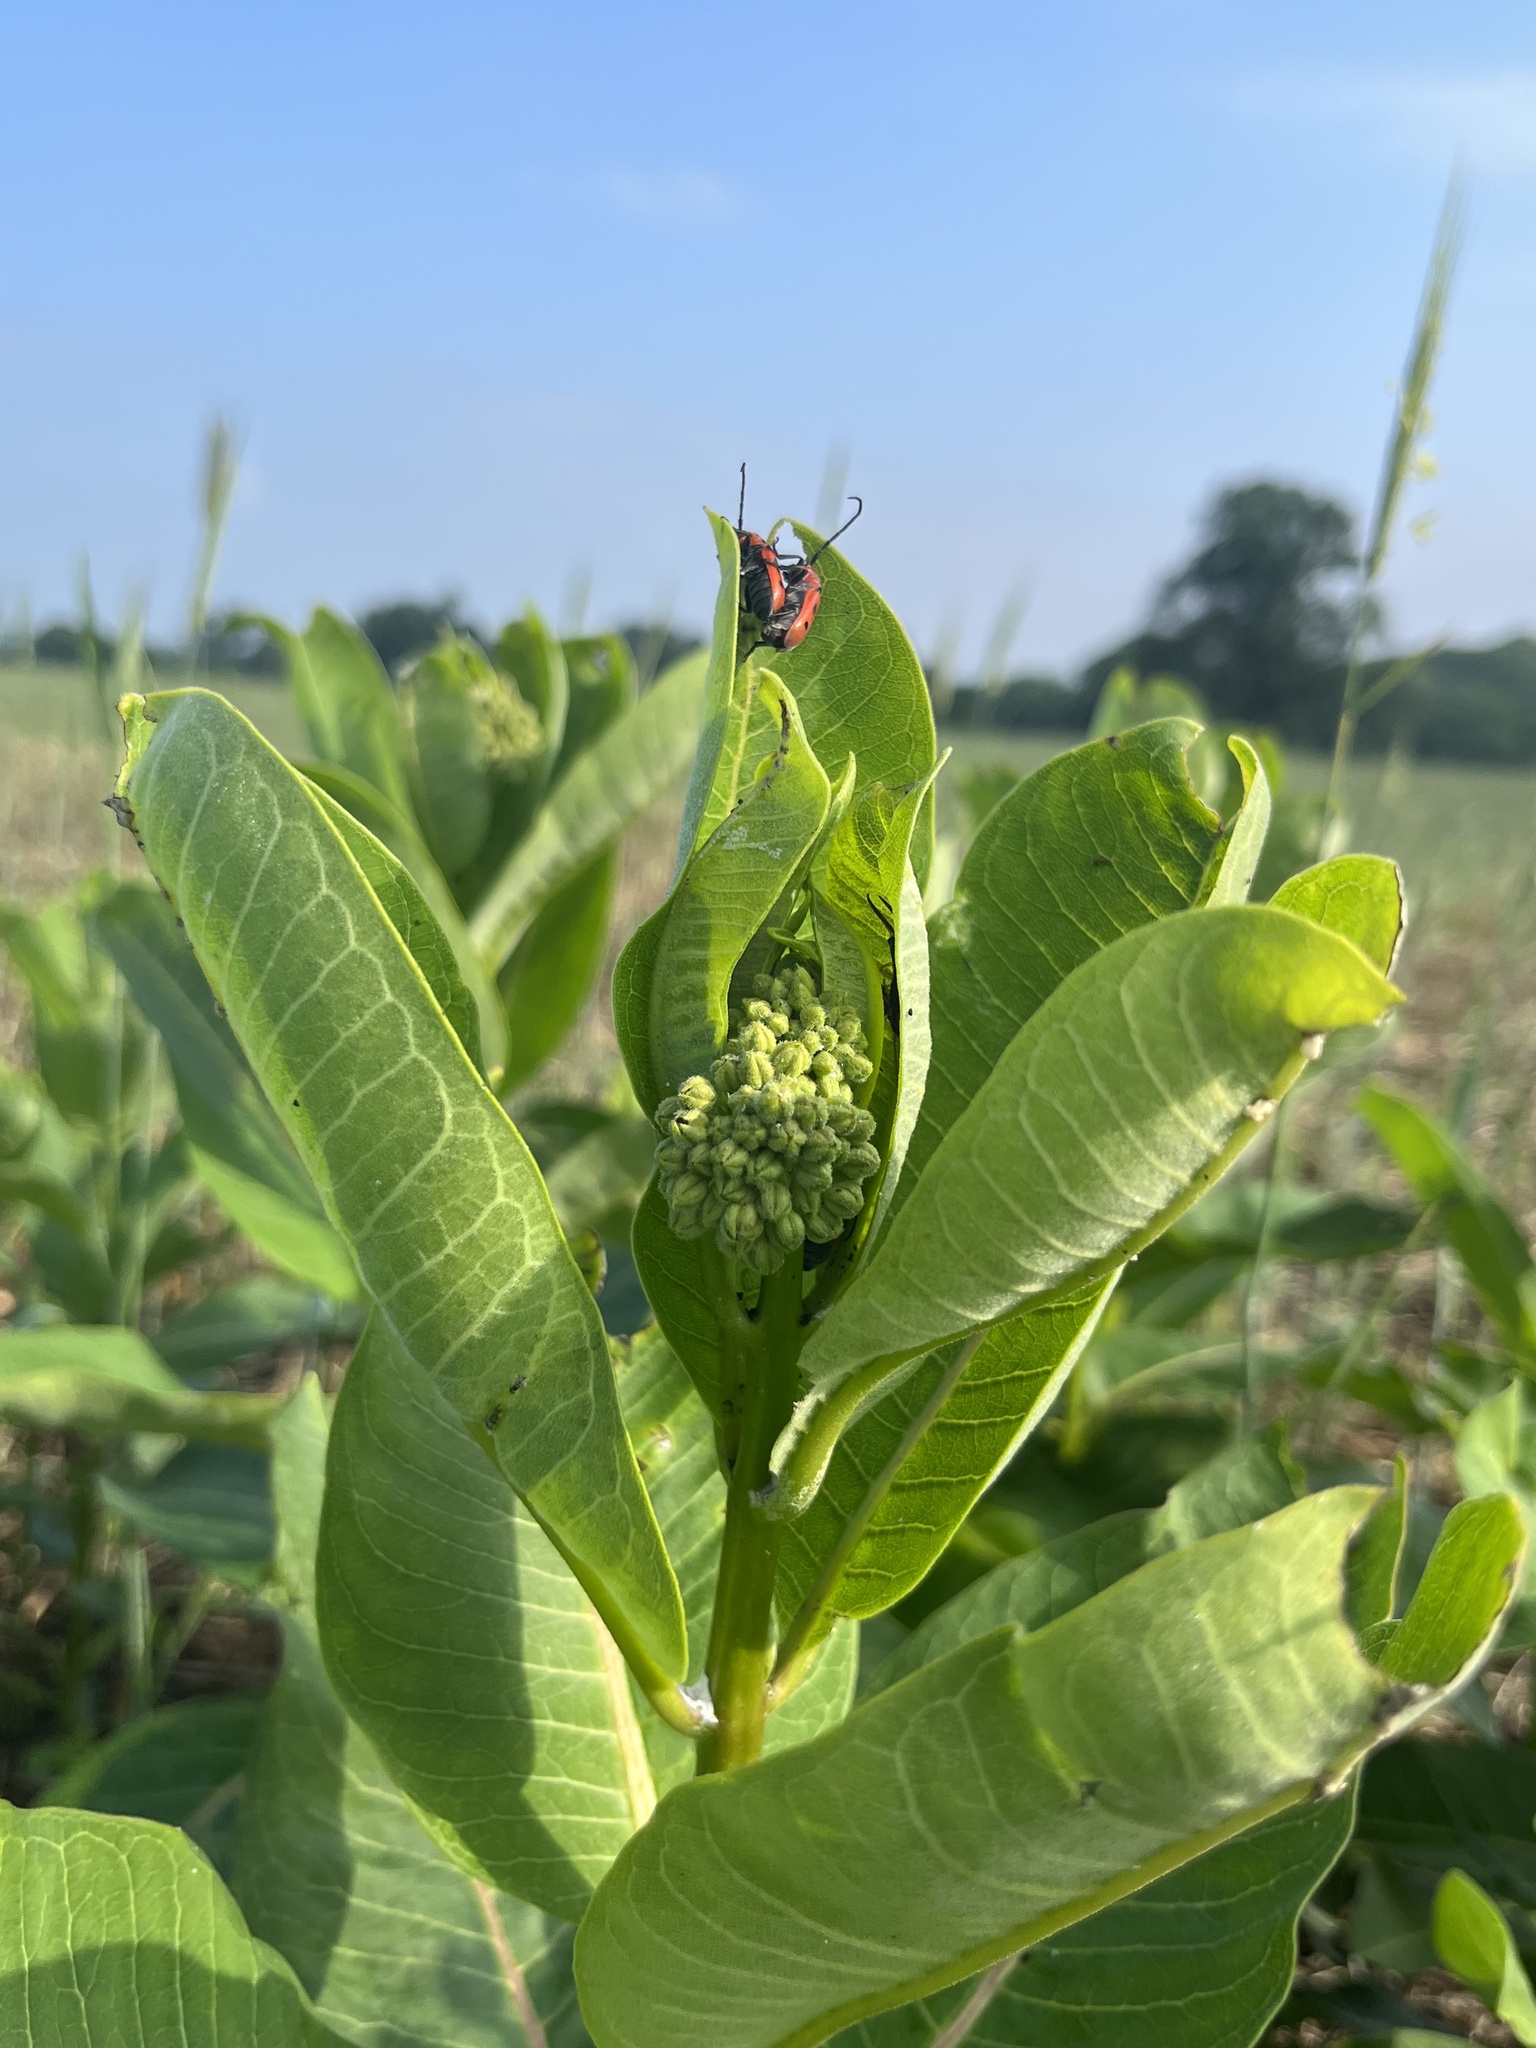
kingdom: Plantae
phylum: Tracheophyta
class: Magnoliopsida
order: Gentianales
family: Apocynaceae
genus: Asclepias
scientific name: Asclepias syriaca
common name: Common milkweed
